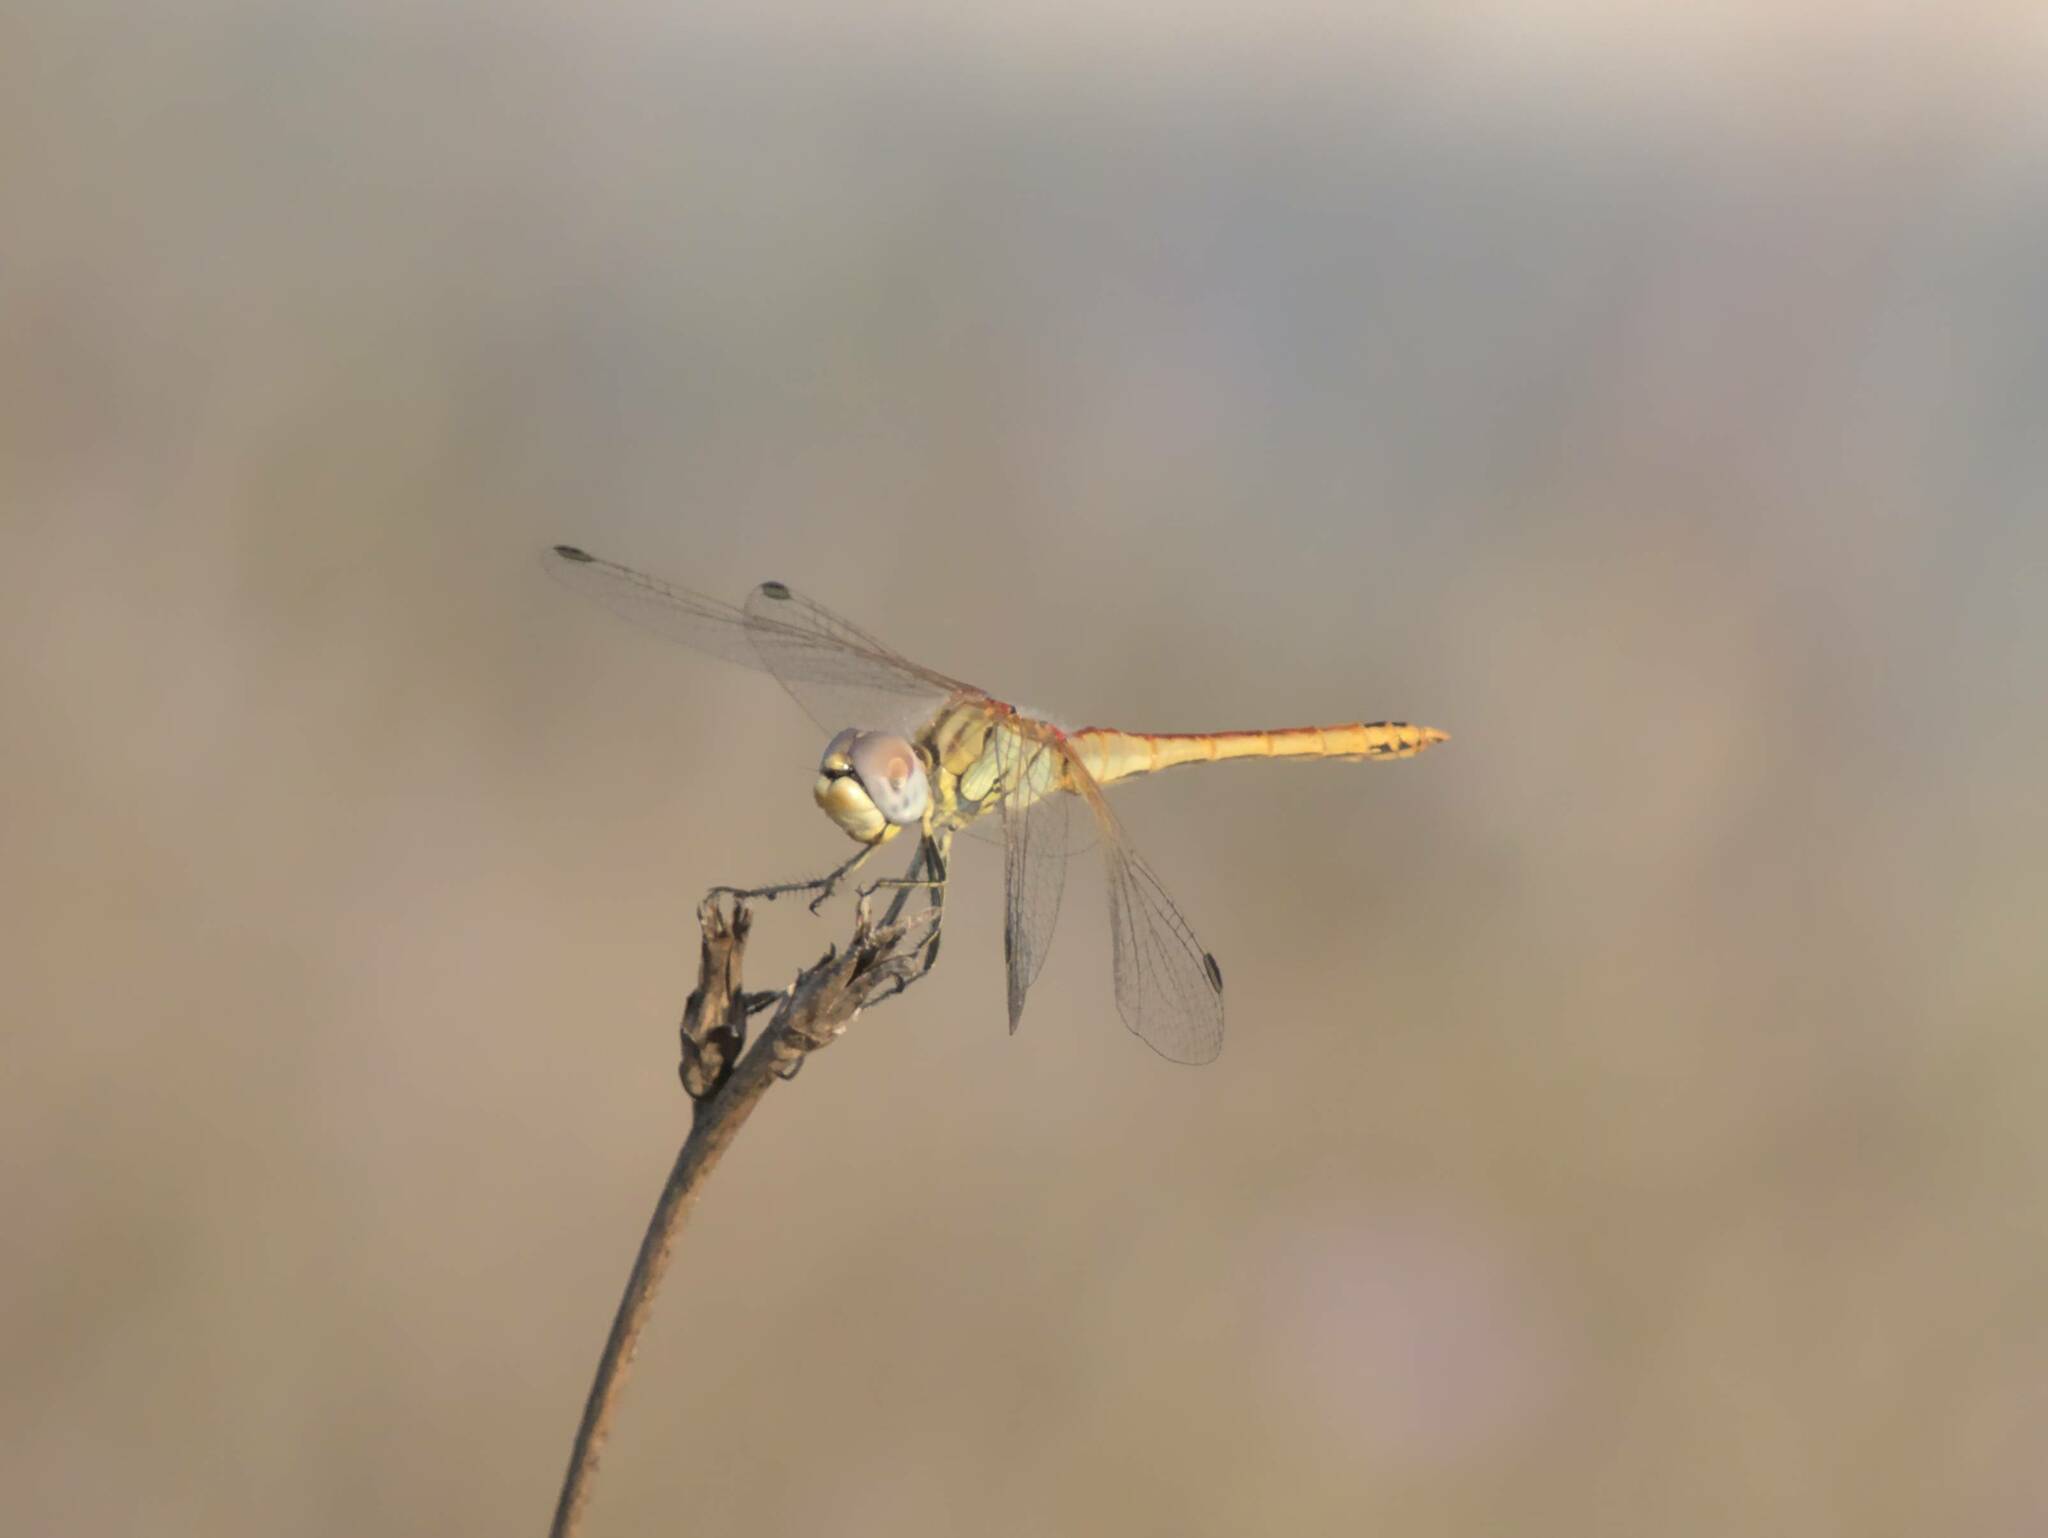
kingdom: Animalia
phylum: Arthropoda
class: Insecta
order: Odonata
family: Libellulidae
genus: Sympetrum
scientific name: Sympetrum fonscolombii
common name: Red-veined darter
